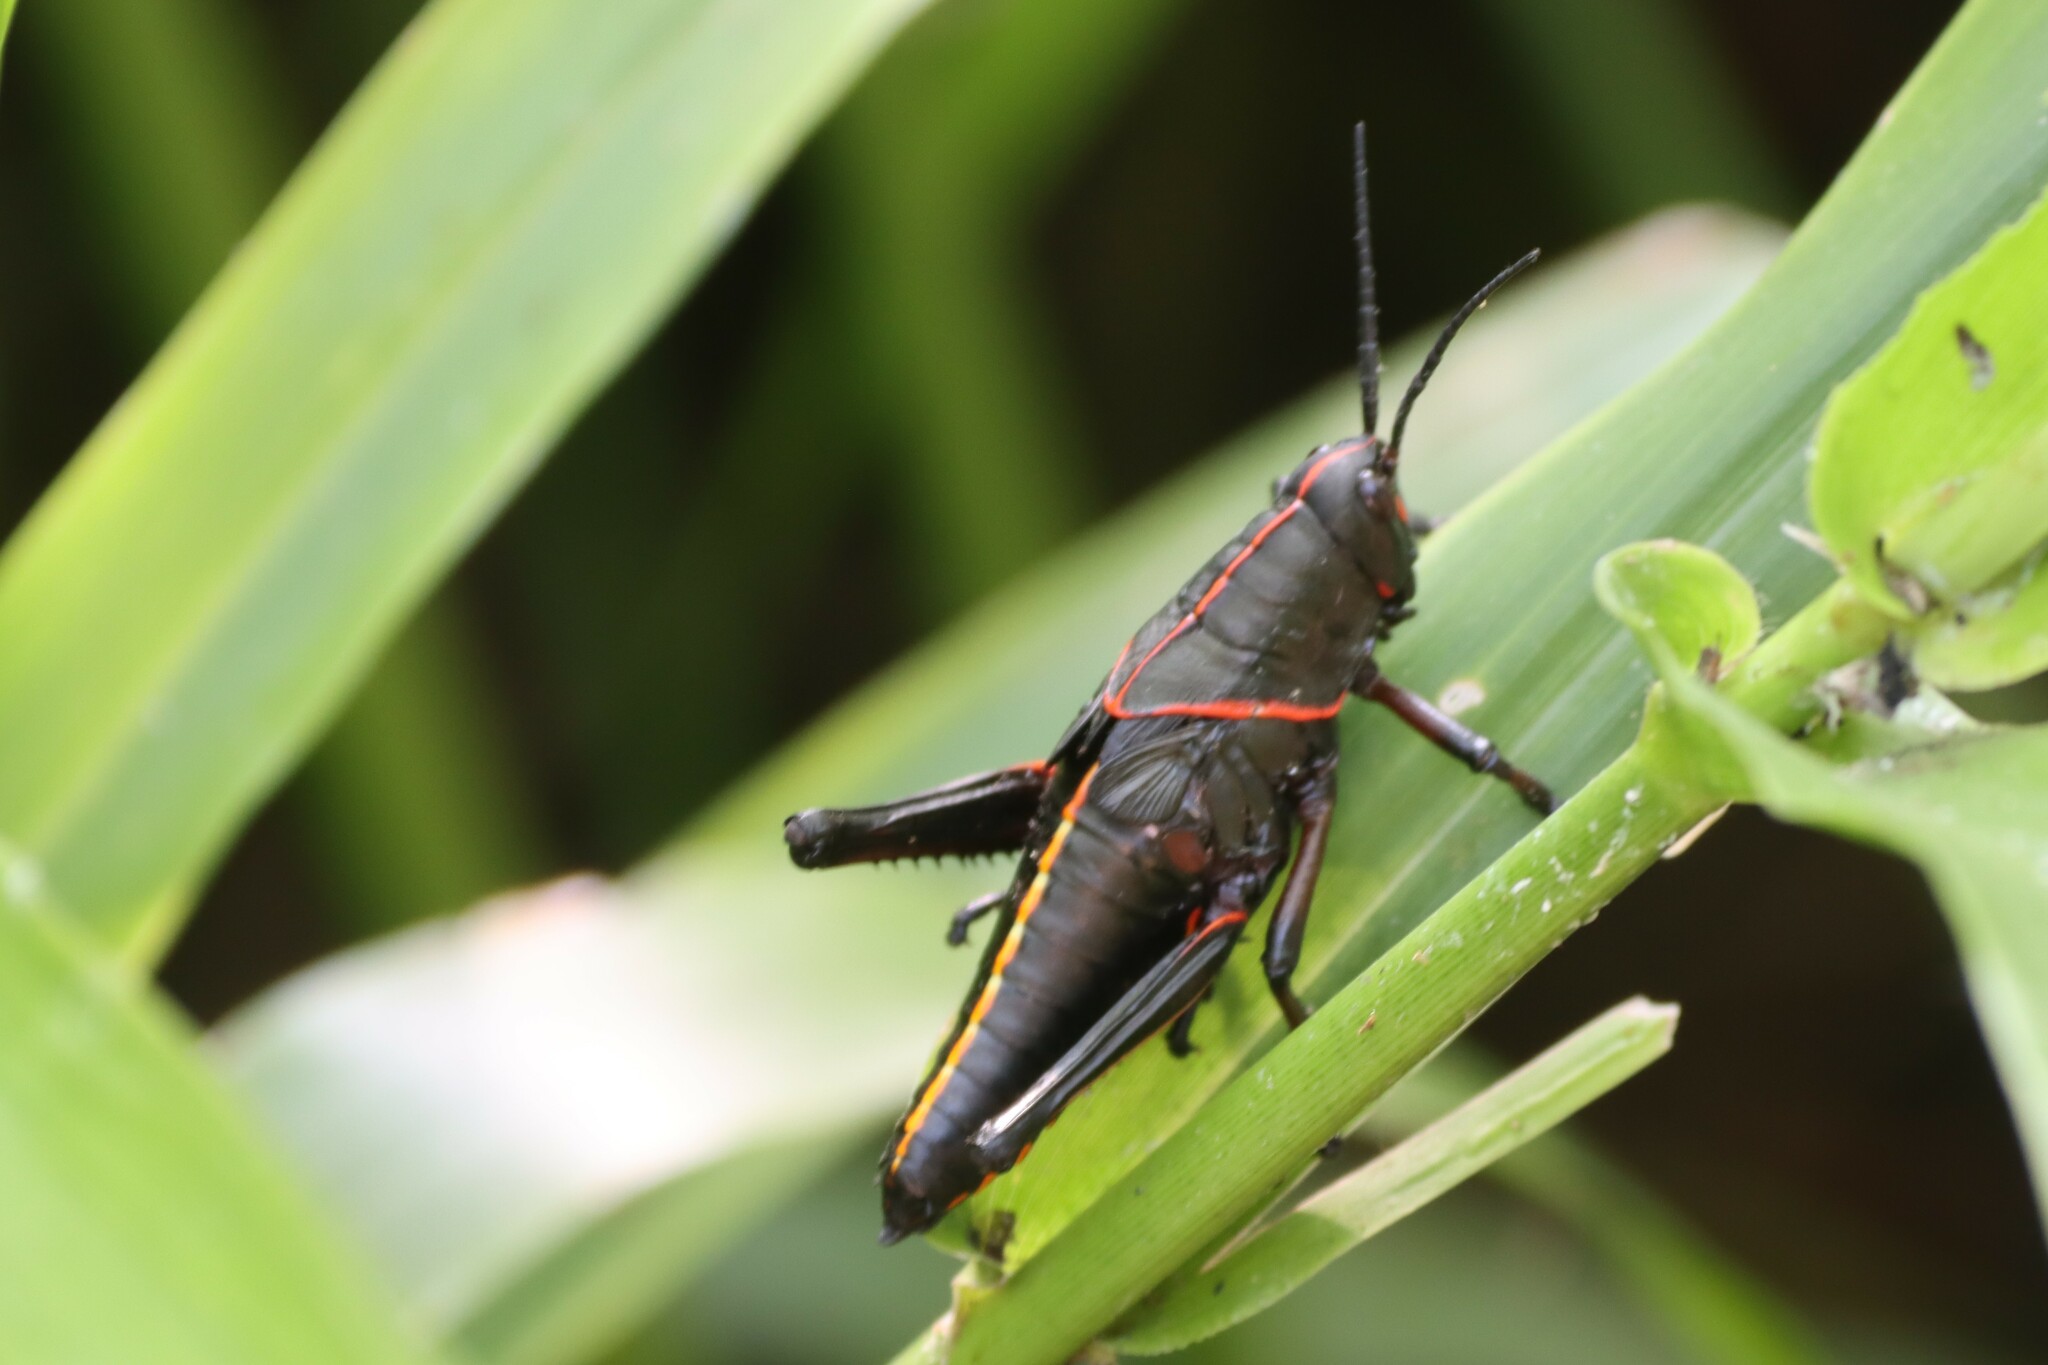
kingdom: Animalia
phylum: Arthropoda
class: Insecta
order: Orthoptera
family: Romaleidae
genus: Romalea
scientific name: Romalea microptera
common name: Eastern lubber grasshopper
